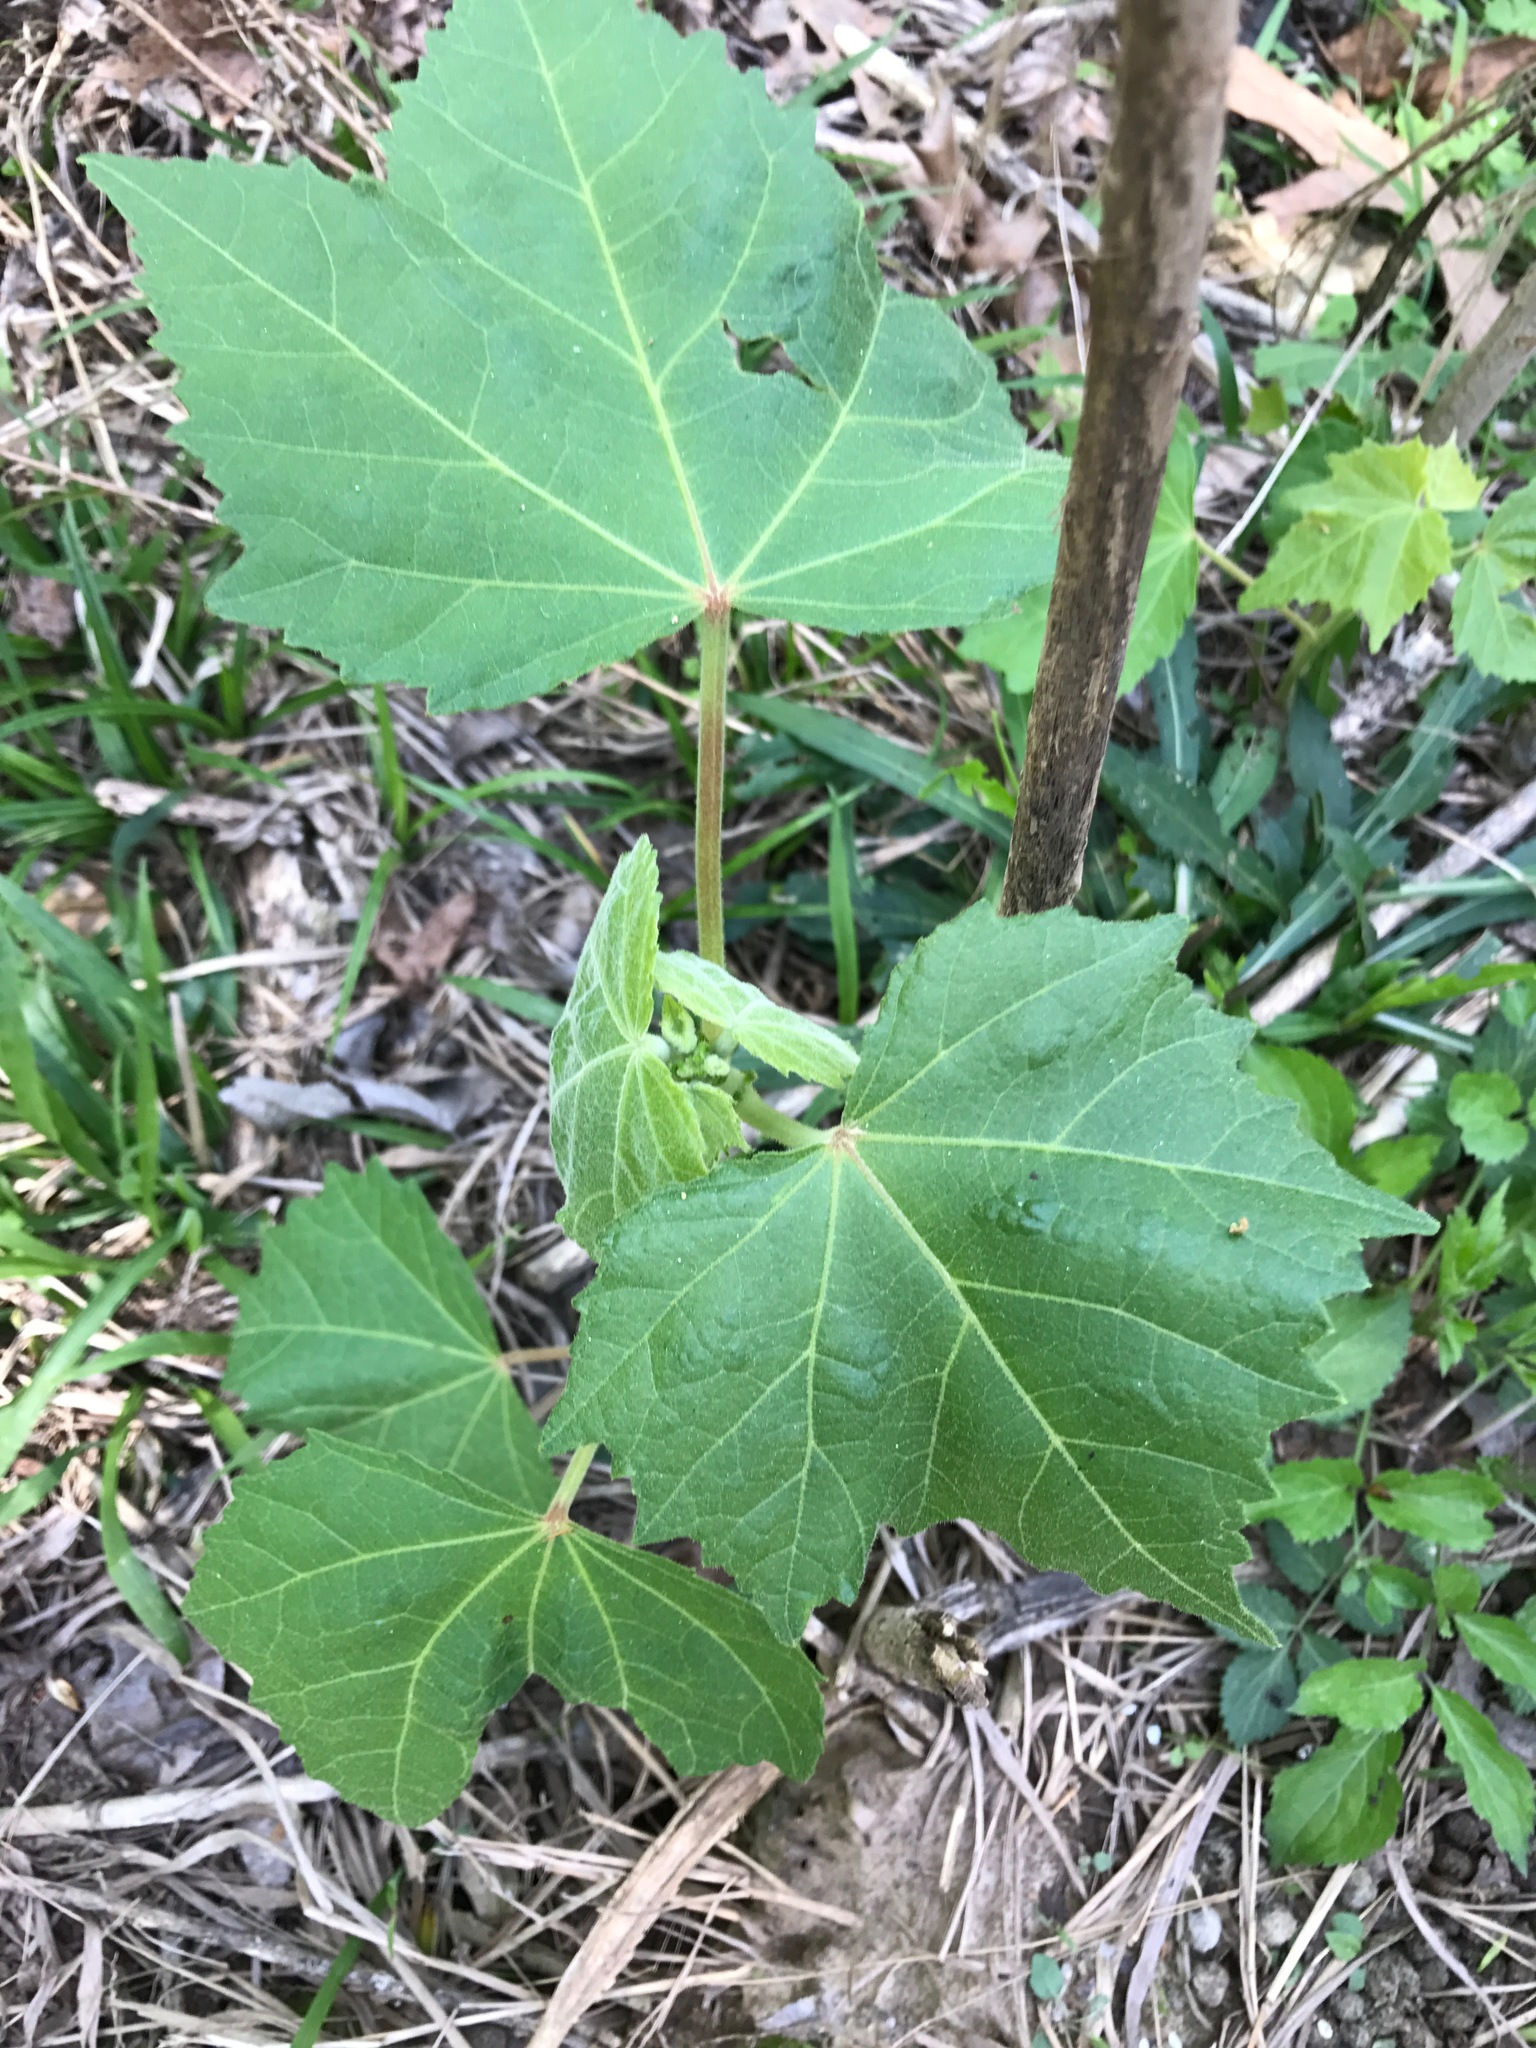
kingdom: Plantae
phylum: Tracheophyta
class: Magnoliopsida
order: Malvales
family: Malvaceae
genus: Hibiscus
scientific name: Hibiscus mutabilis
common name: Dixie rosemallow
